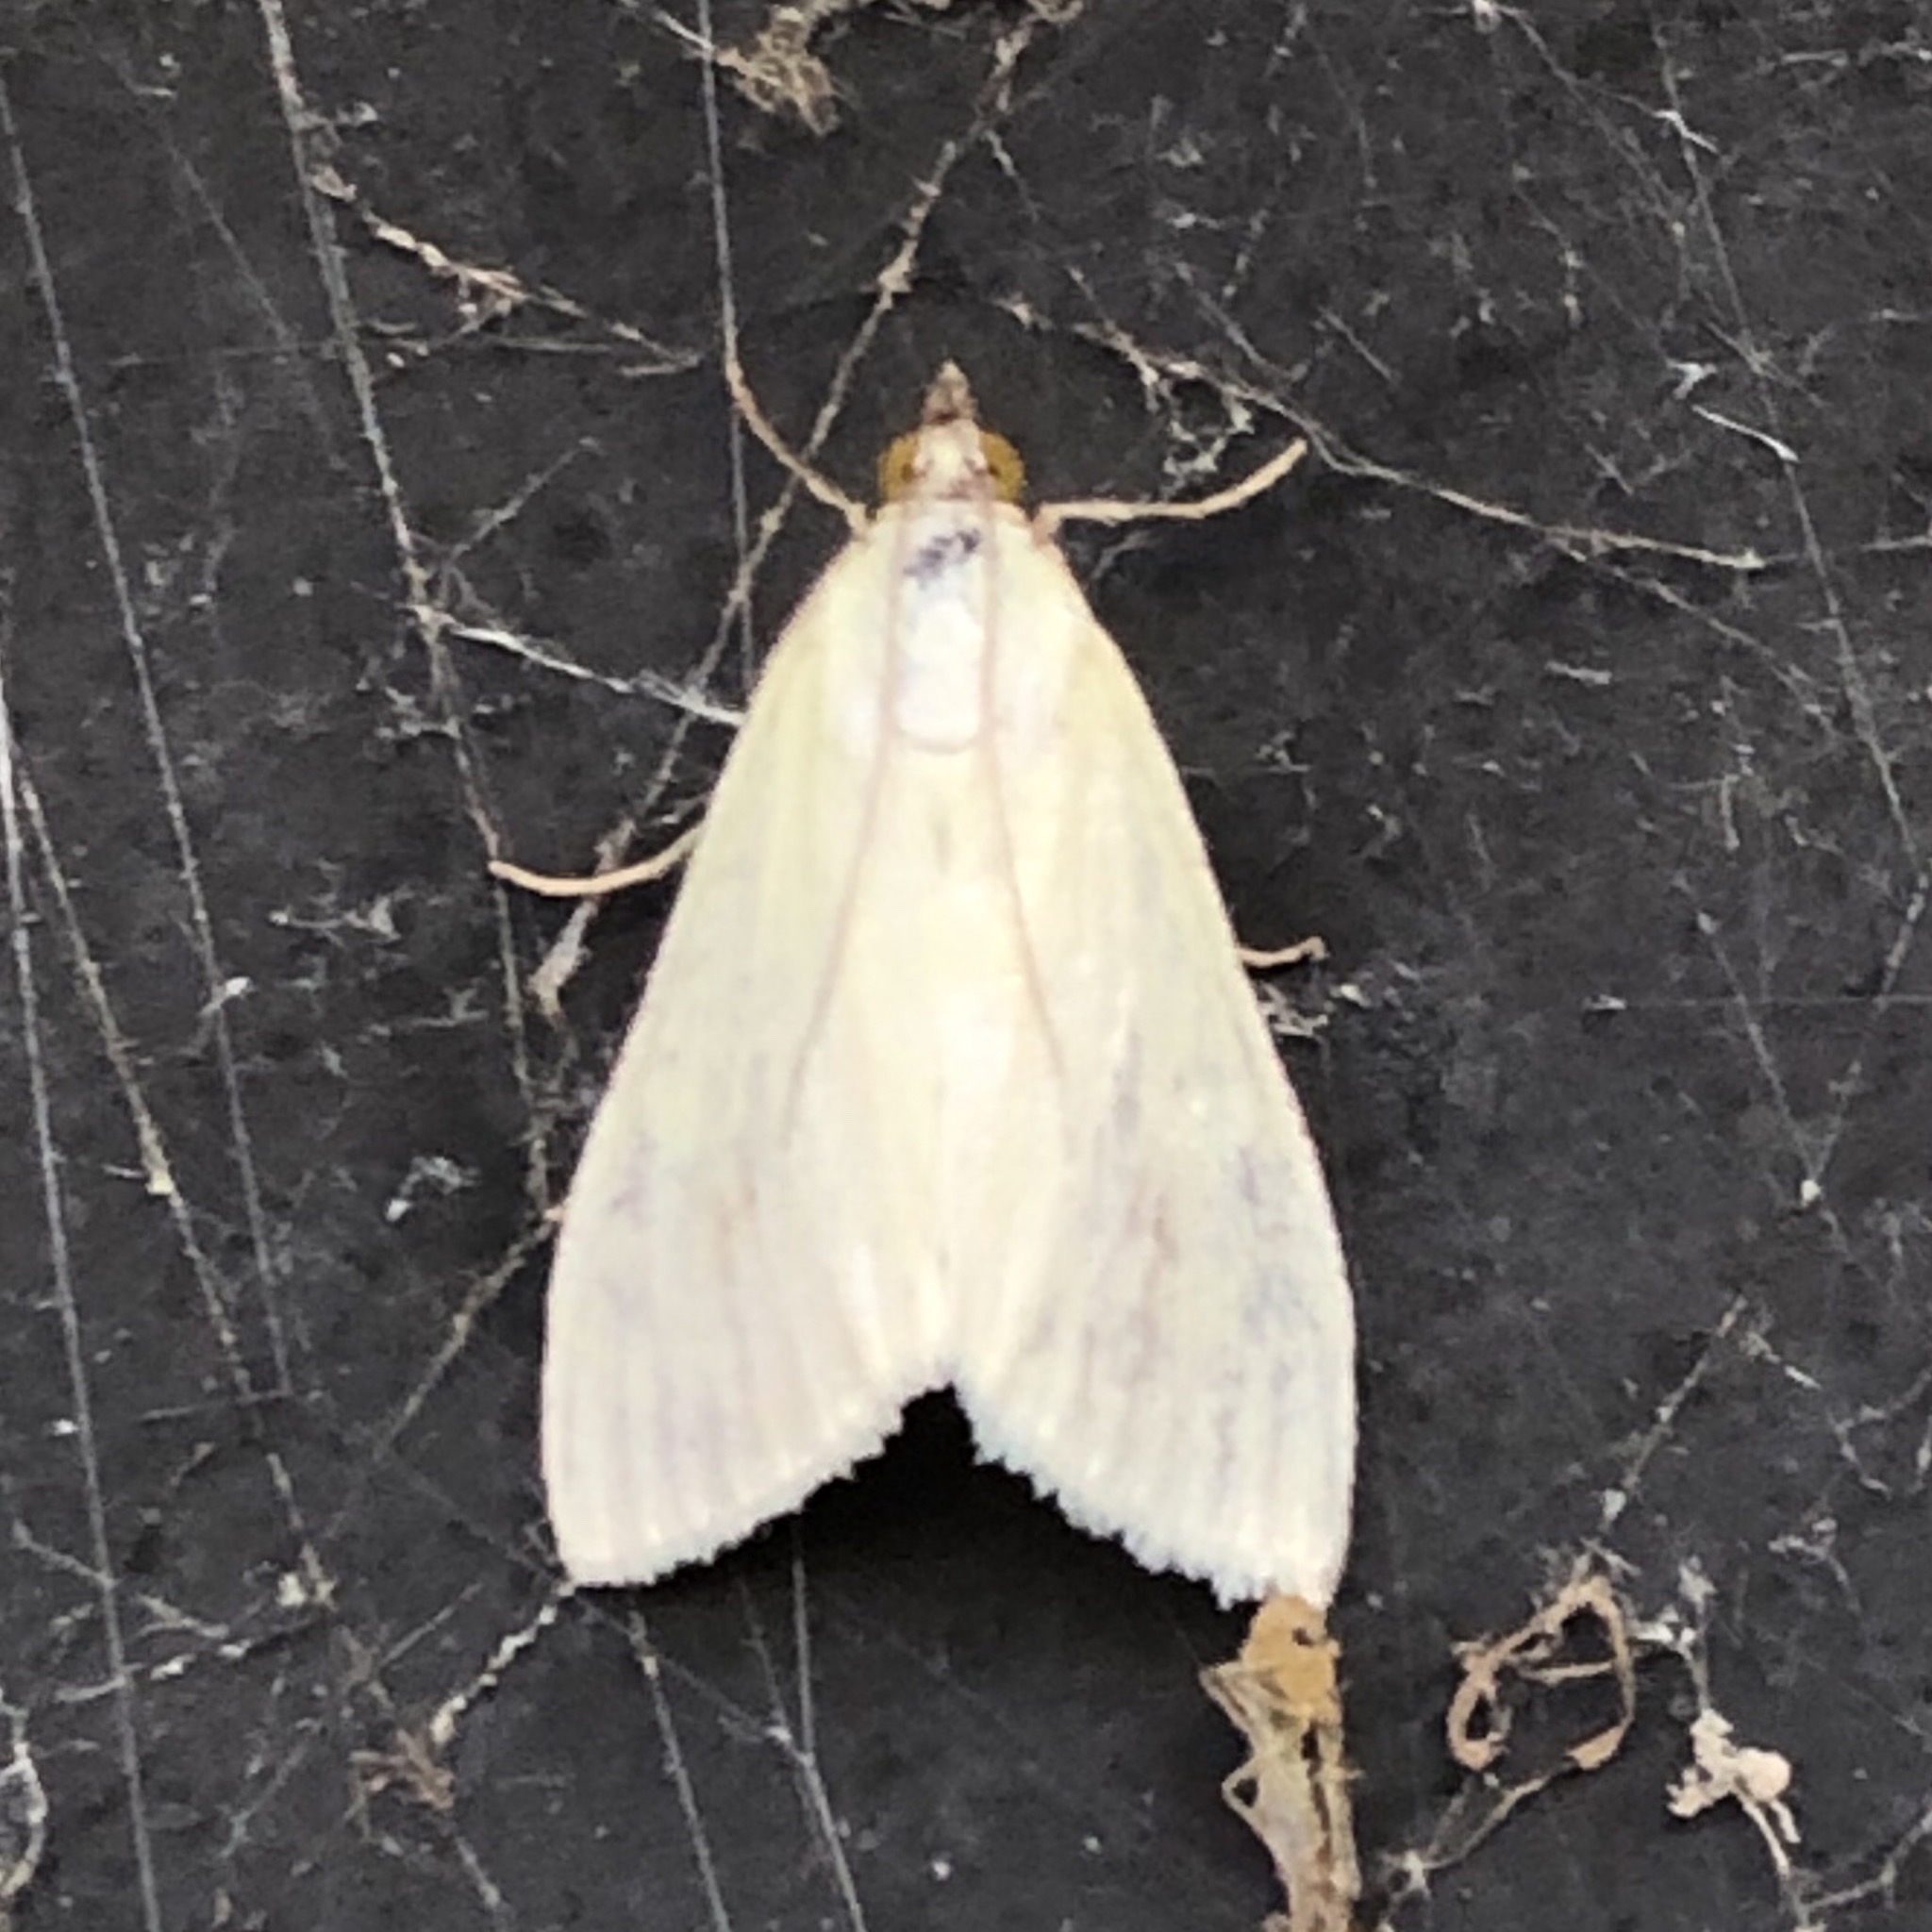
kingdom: Animalia
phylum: Arthropoda
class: Insecta
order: Lepidoptera
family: Crambidae
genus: Sitochroa
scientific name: Sitochroa palealis
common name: Greenish-yellow sitochroa moth
